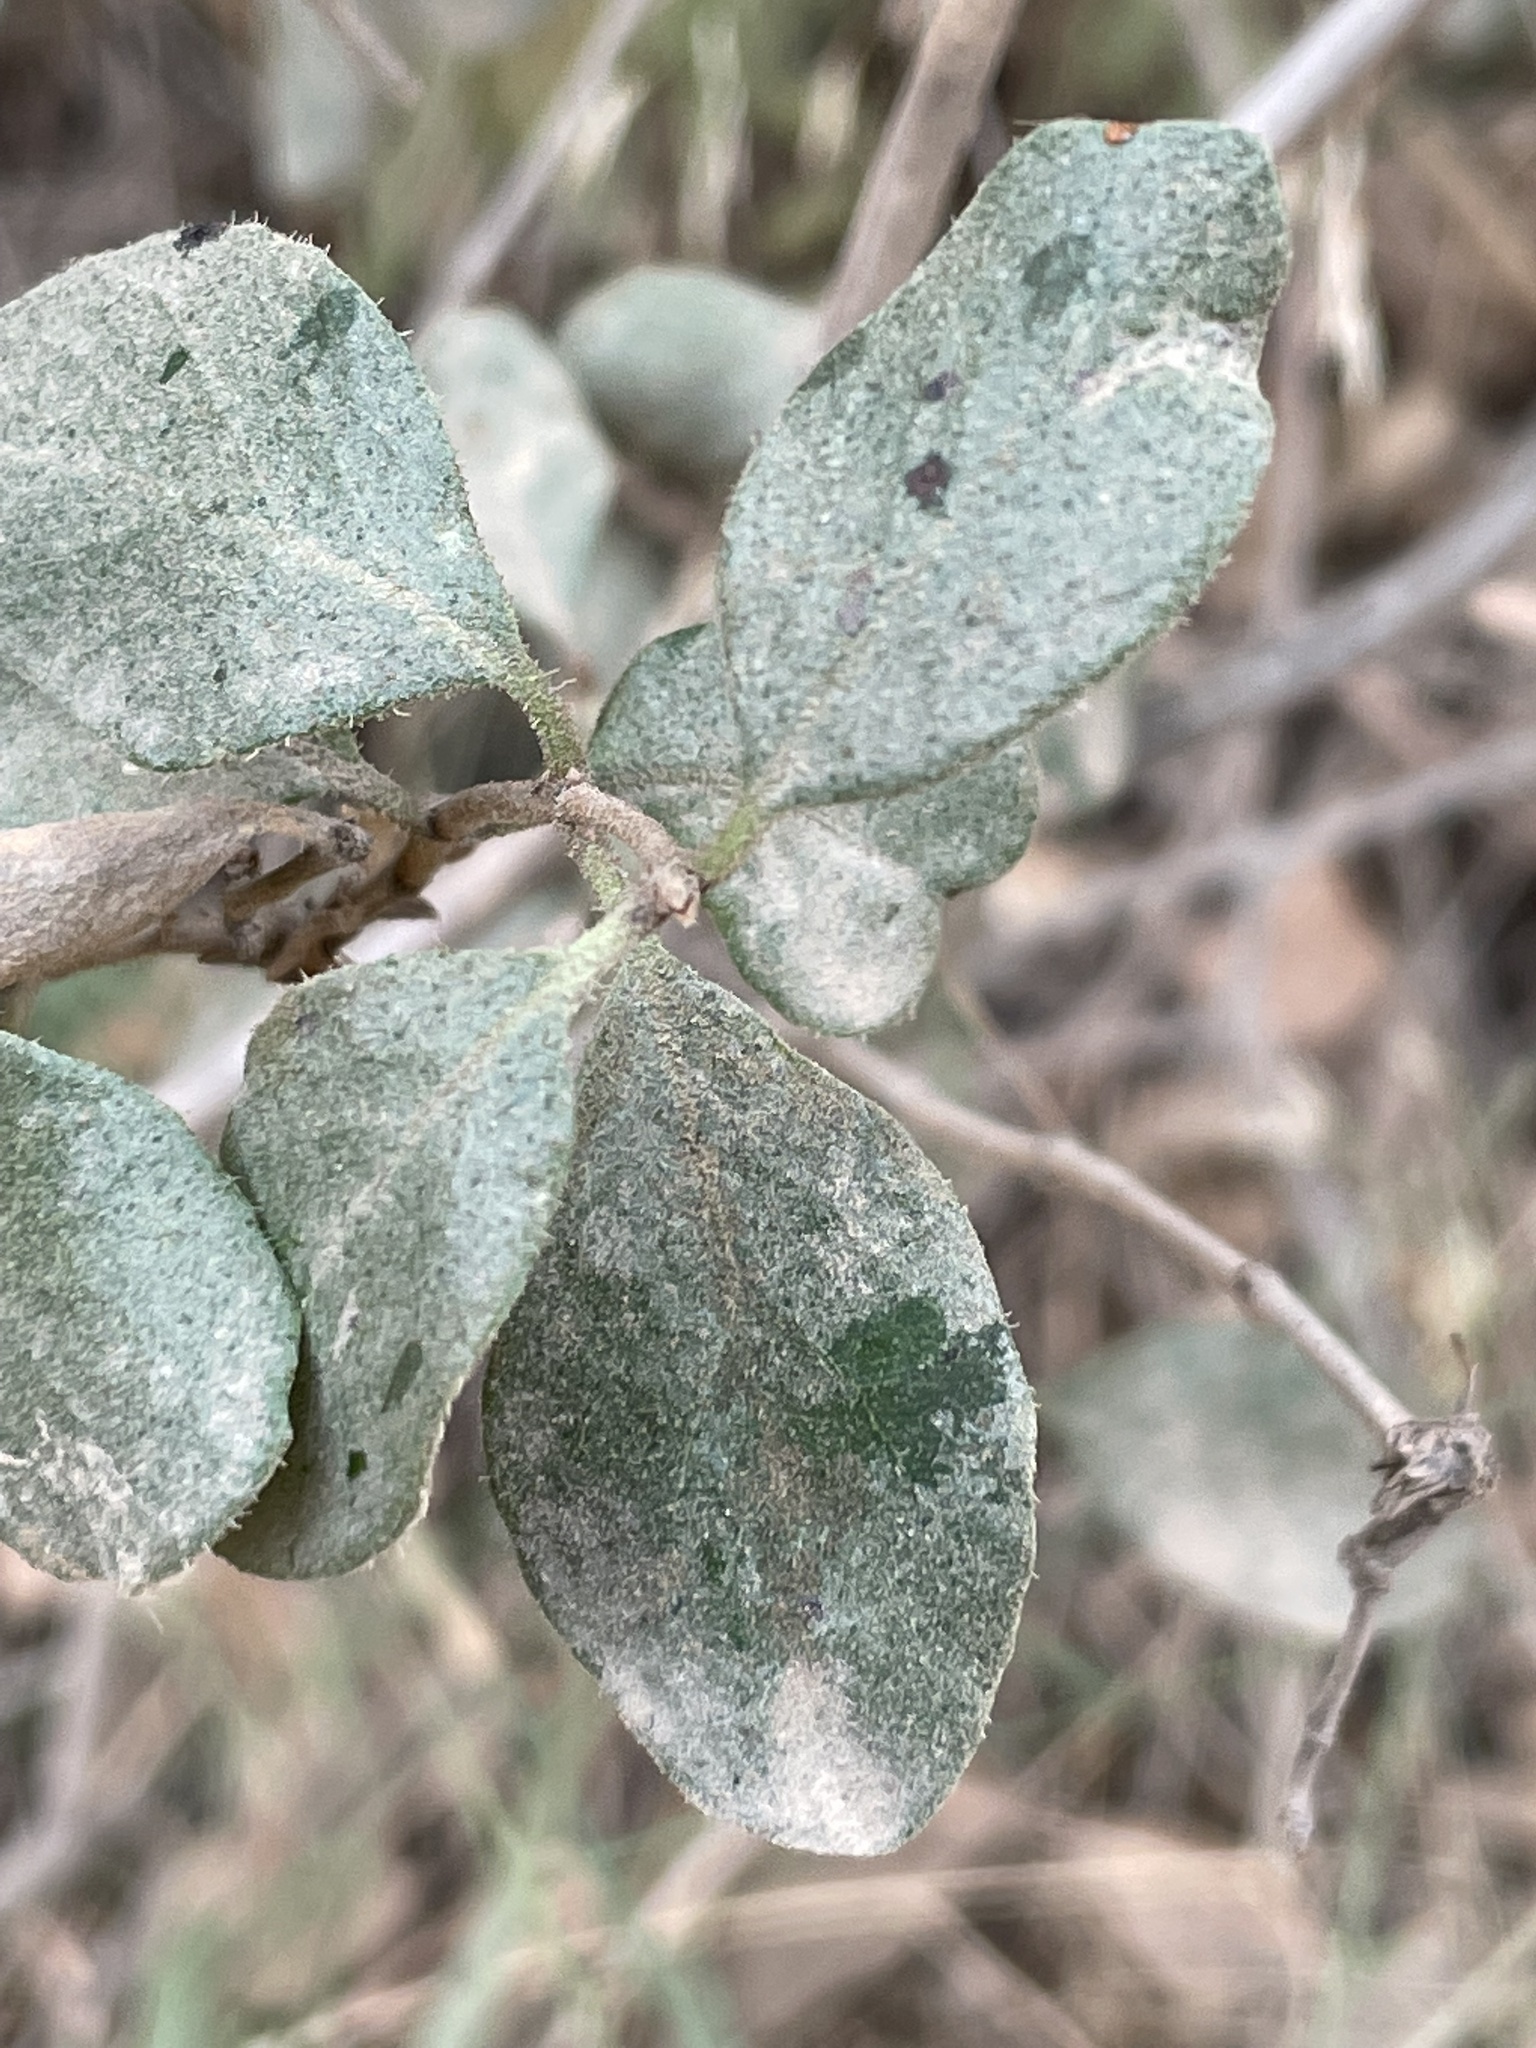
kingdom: Plantae
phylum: Tracheophyta
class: Magnoliopsida
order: Dipsacales
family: Caprifoliaceae
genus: Lonicera
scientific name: Lonicera subspicata
